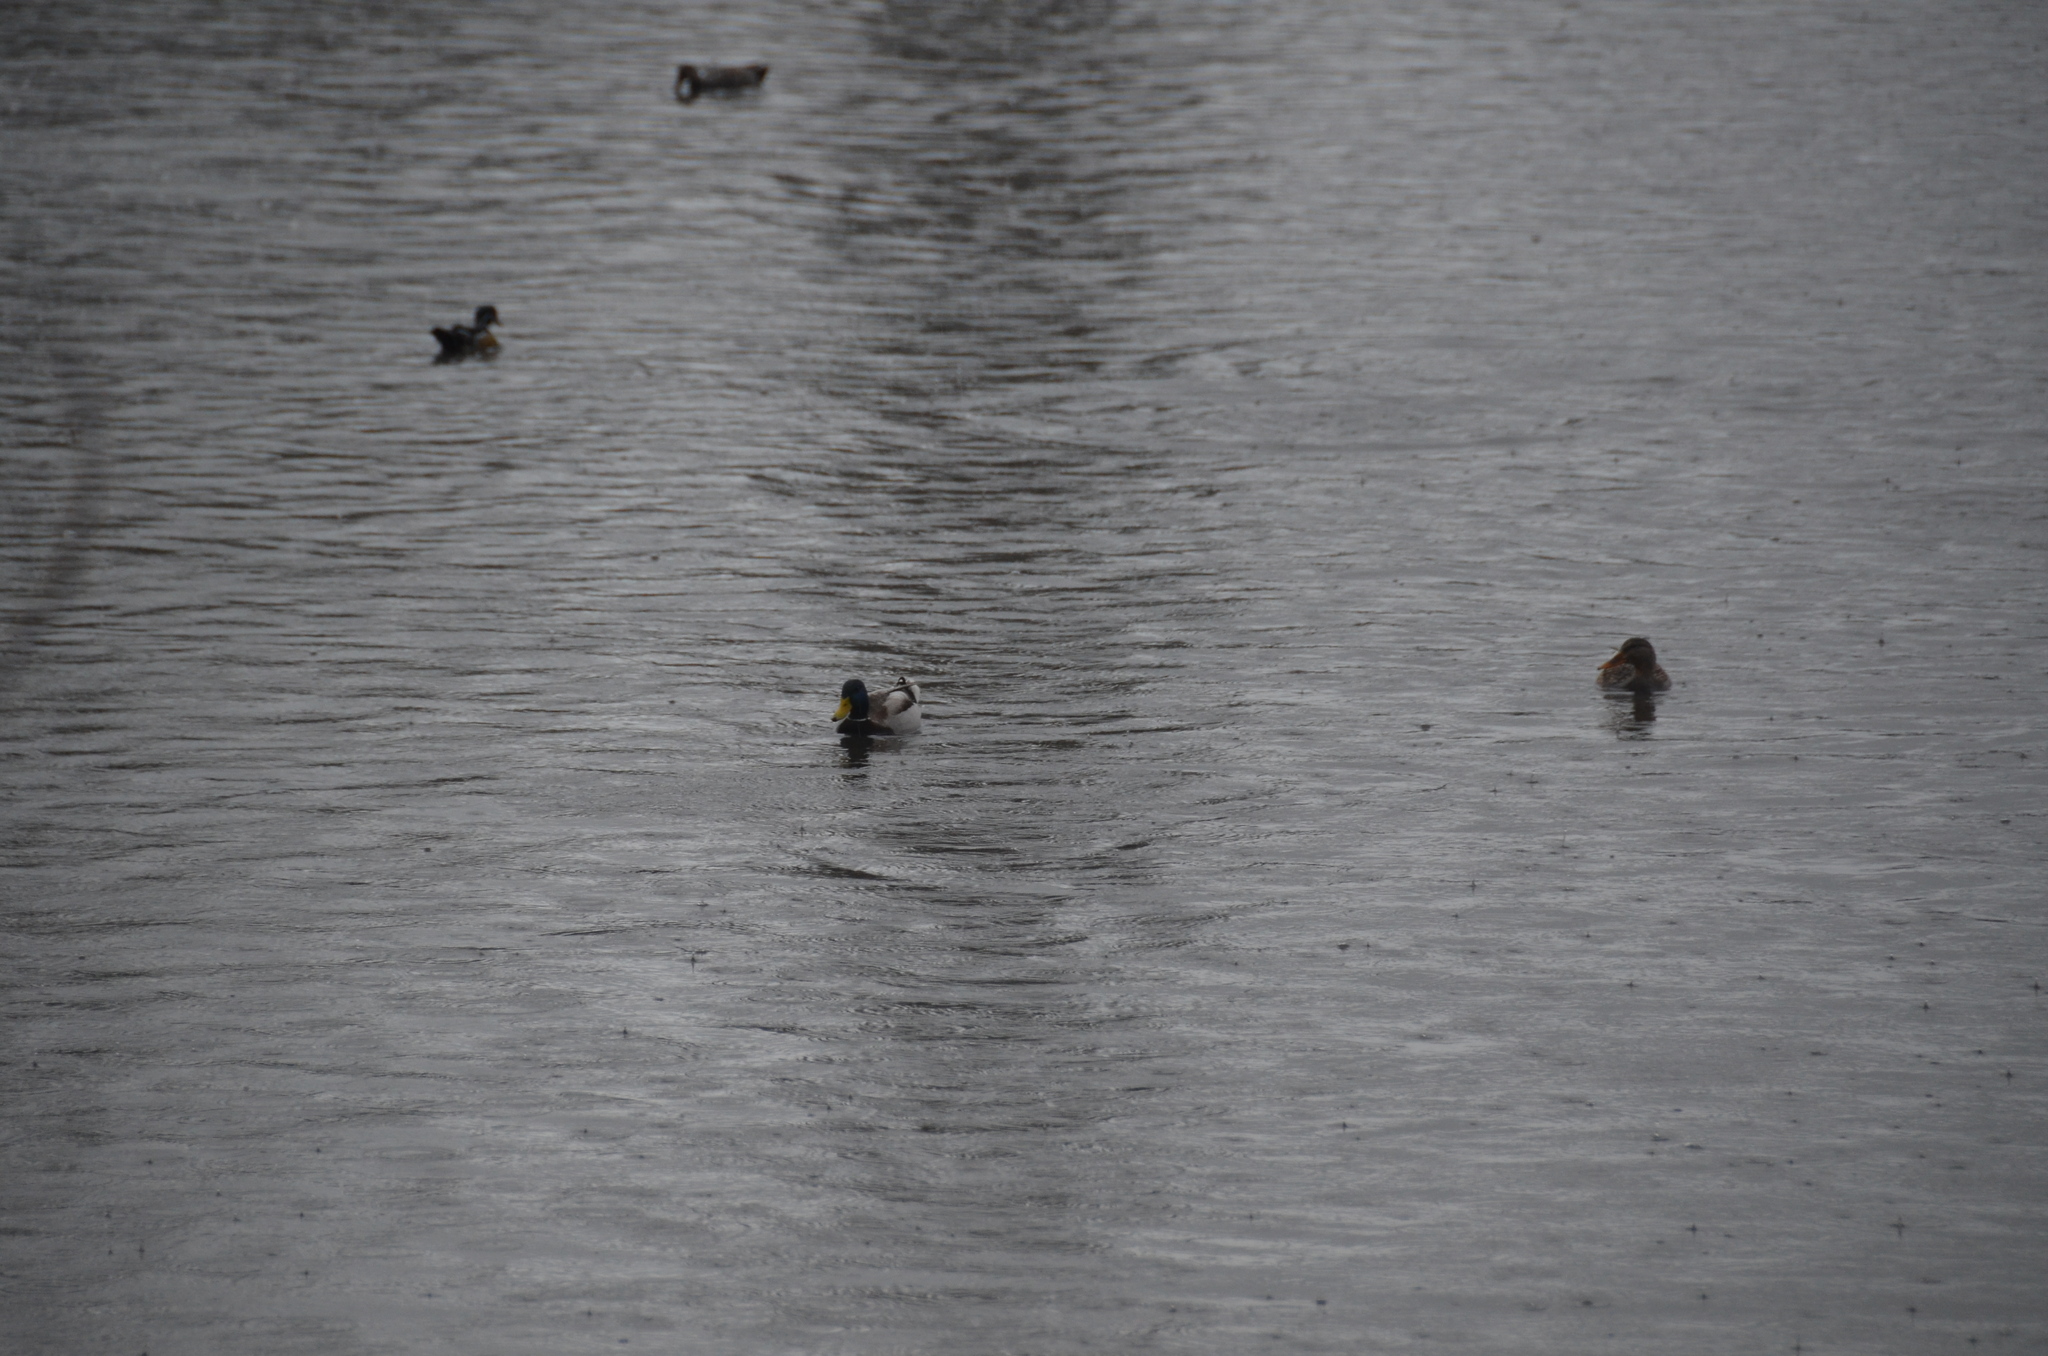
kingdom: Animalia
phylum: Chordata
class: Aves
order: Anseriformes
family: Anatidae
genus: Anas
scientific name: Anas platyrhynchos
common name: Mallard
